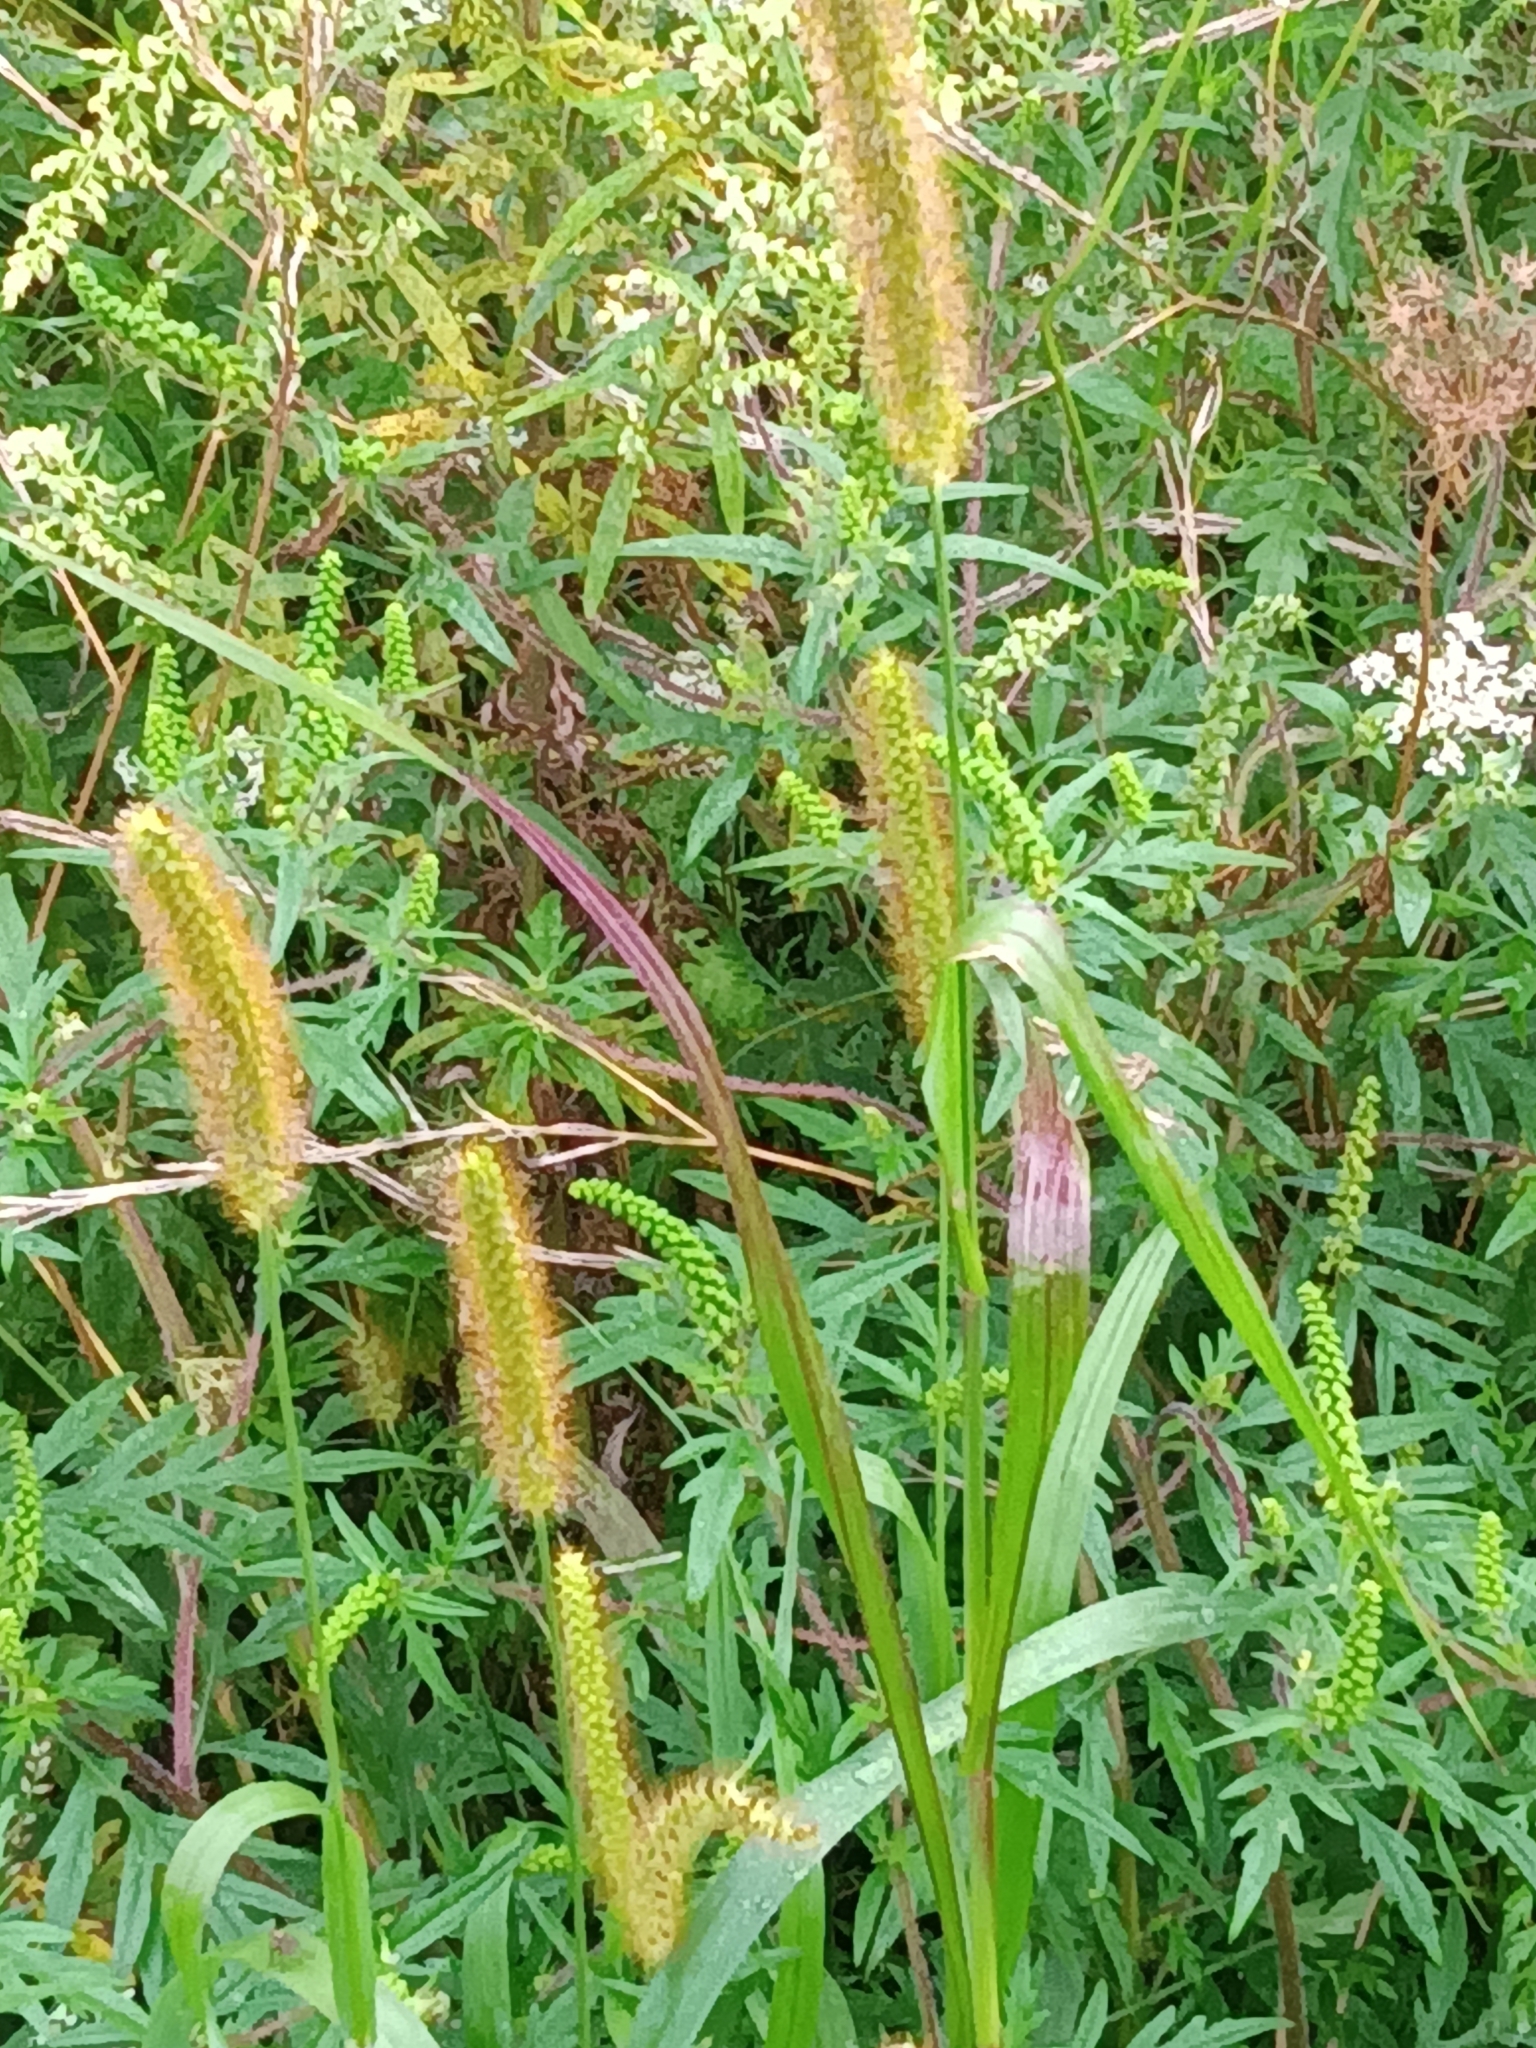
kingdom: Plantae
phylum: Tracheophyta
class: Liliopsida
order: Poales
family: Poaceae
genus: Setaria
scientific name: Setaria pumila
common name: Yellow bristle-grass
